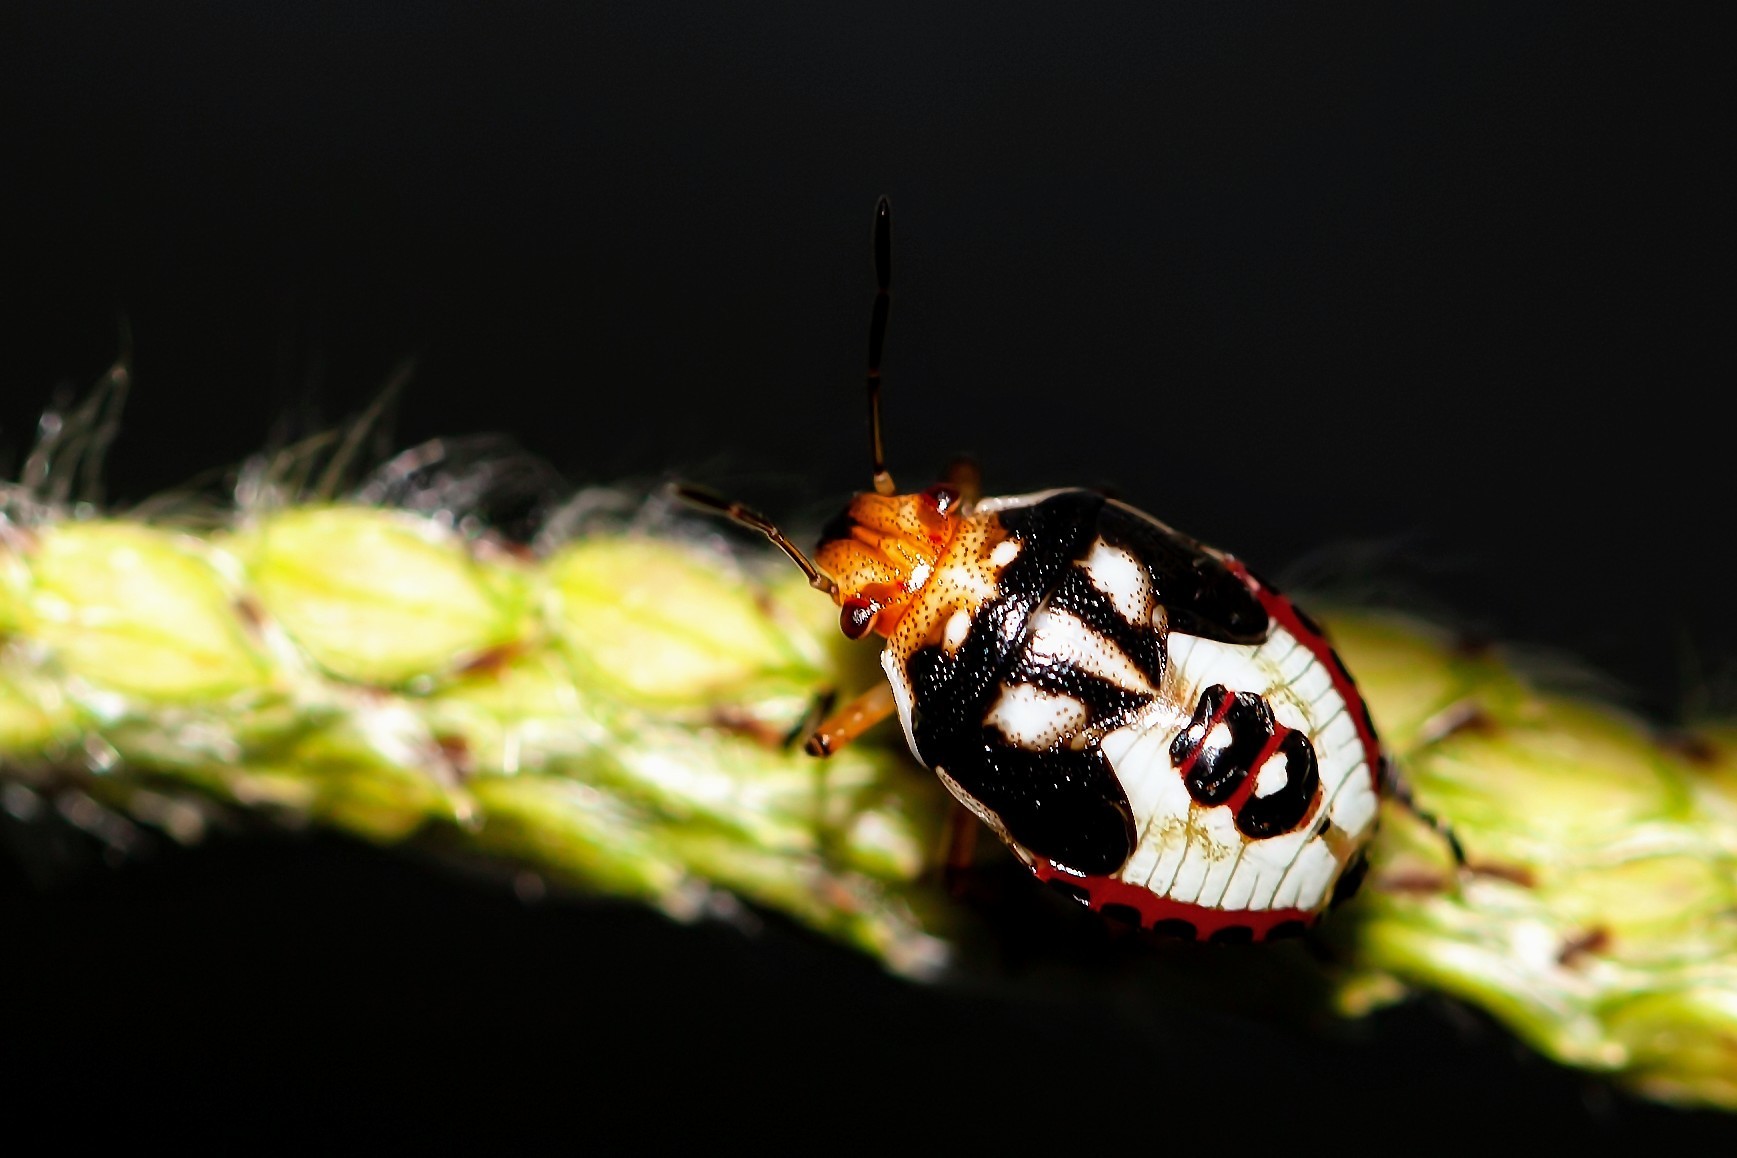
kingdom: Animalia
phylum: Arthropoda
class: Insecta
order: Hemiptera
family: Pentatomidae
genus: Mormidea
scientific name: Mormidea pama
